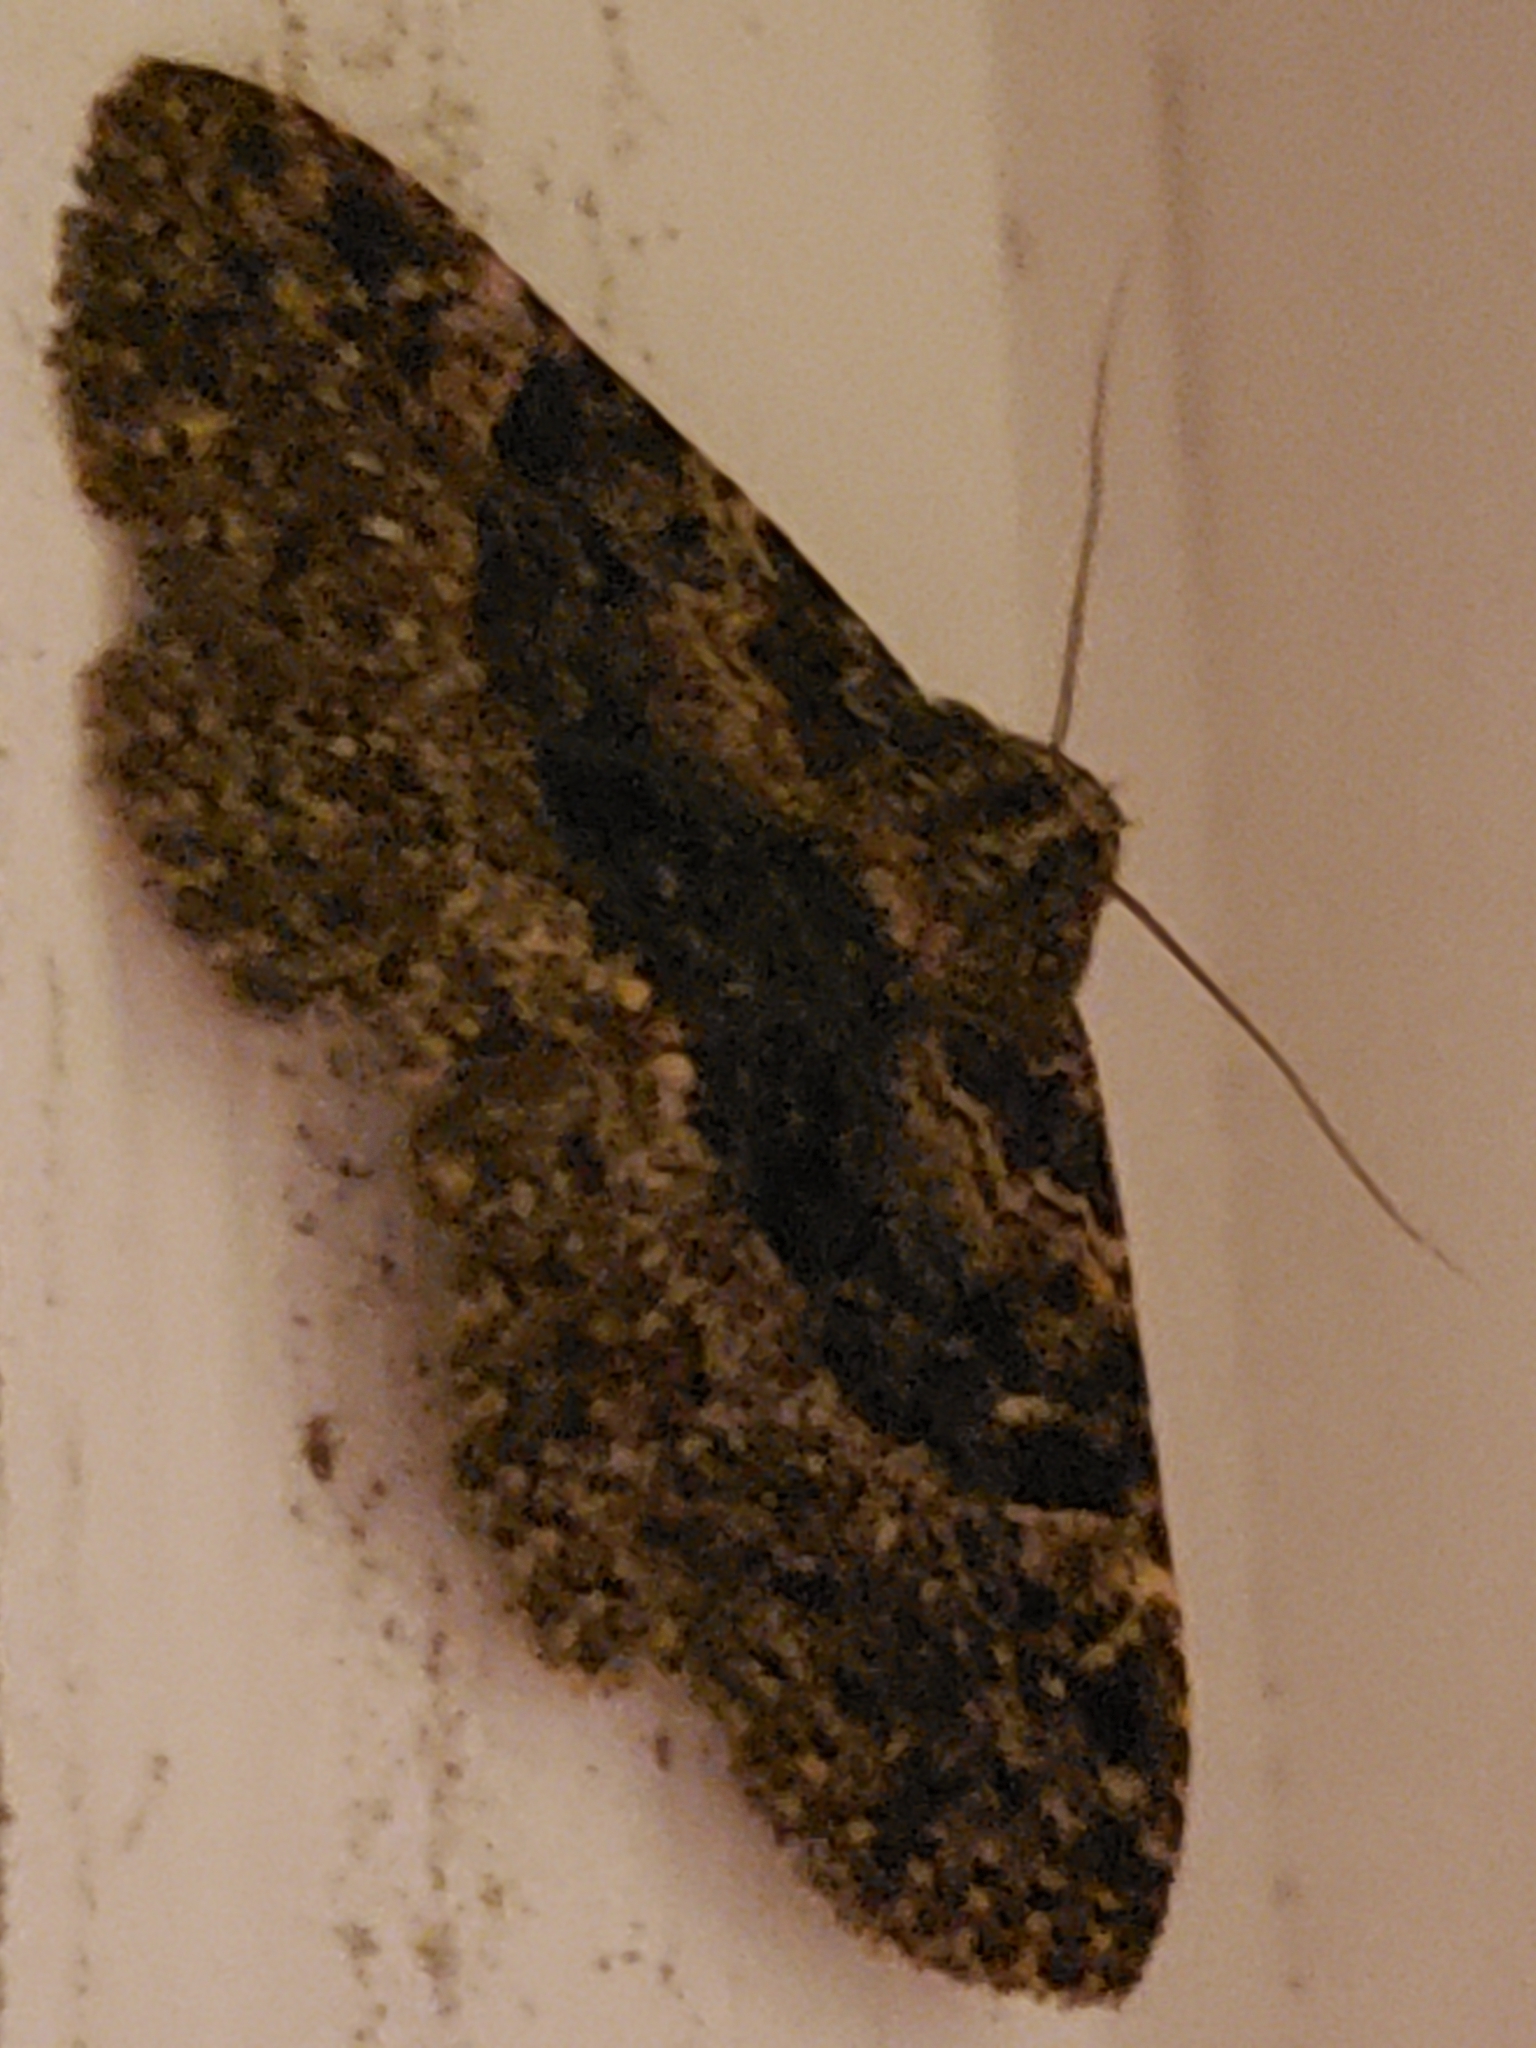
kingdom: Animalia
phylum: Arthropoda
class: Insecta
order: Lepidoptera
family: Erebidae
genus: Metalectra
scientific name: Metalectra discalis
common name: Common fungus moth
